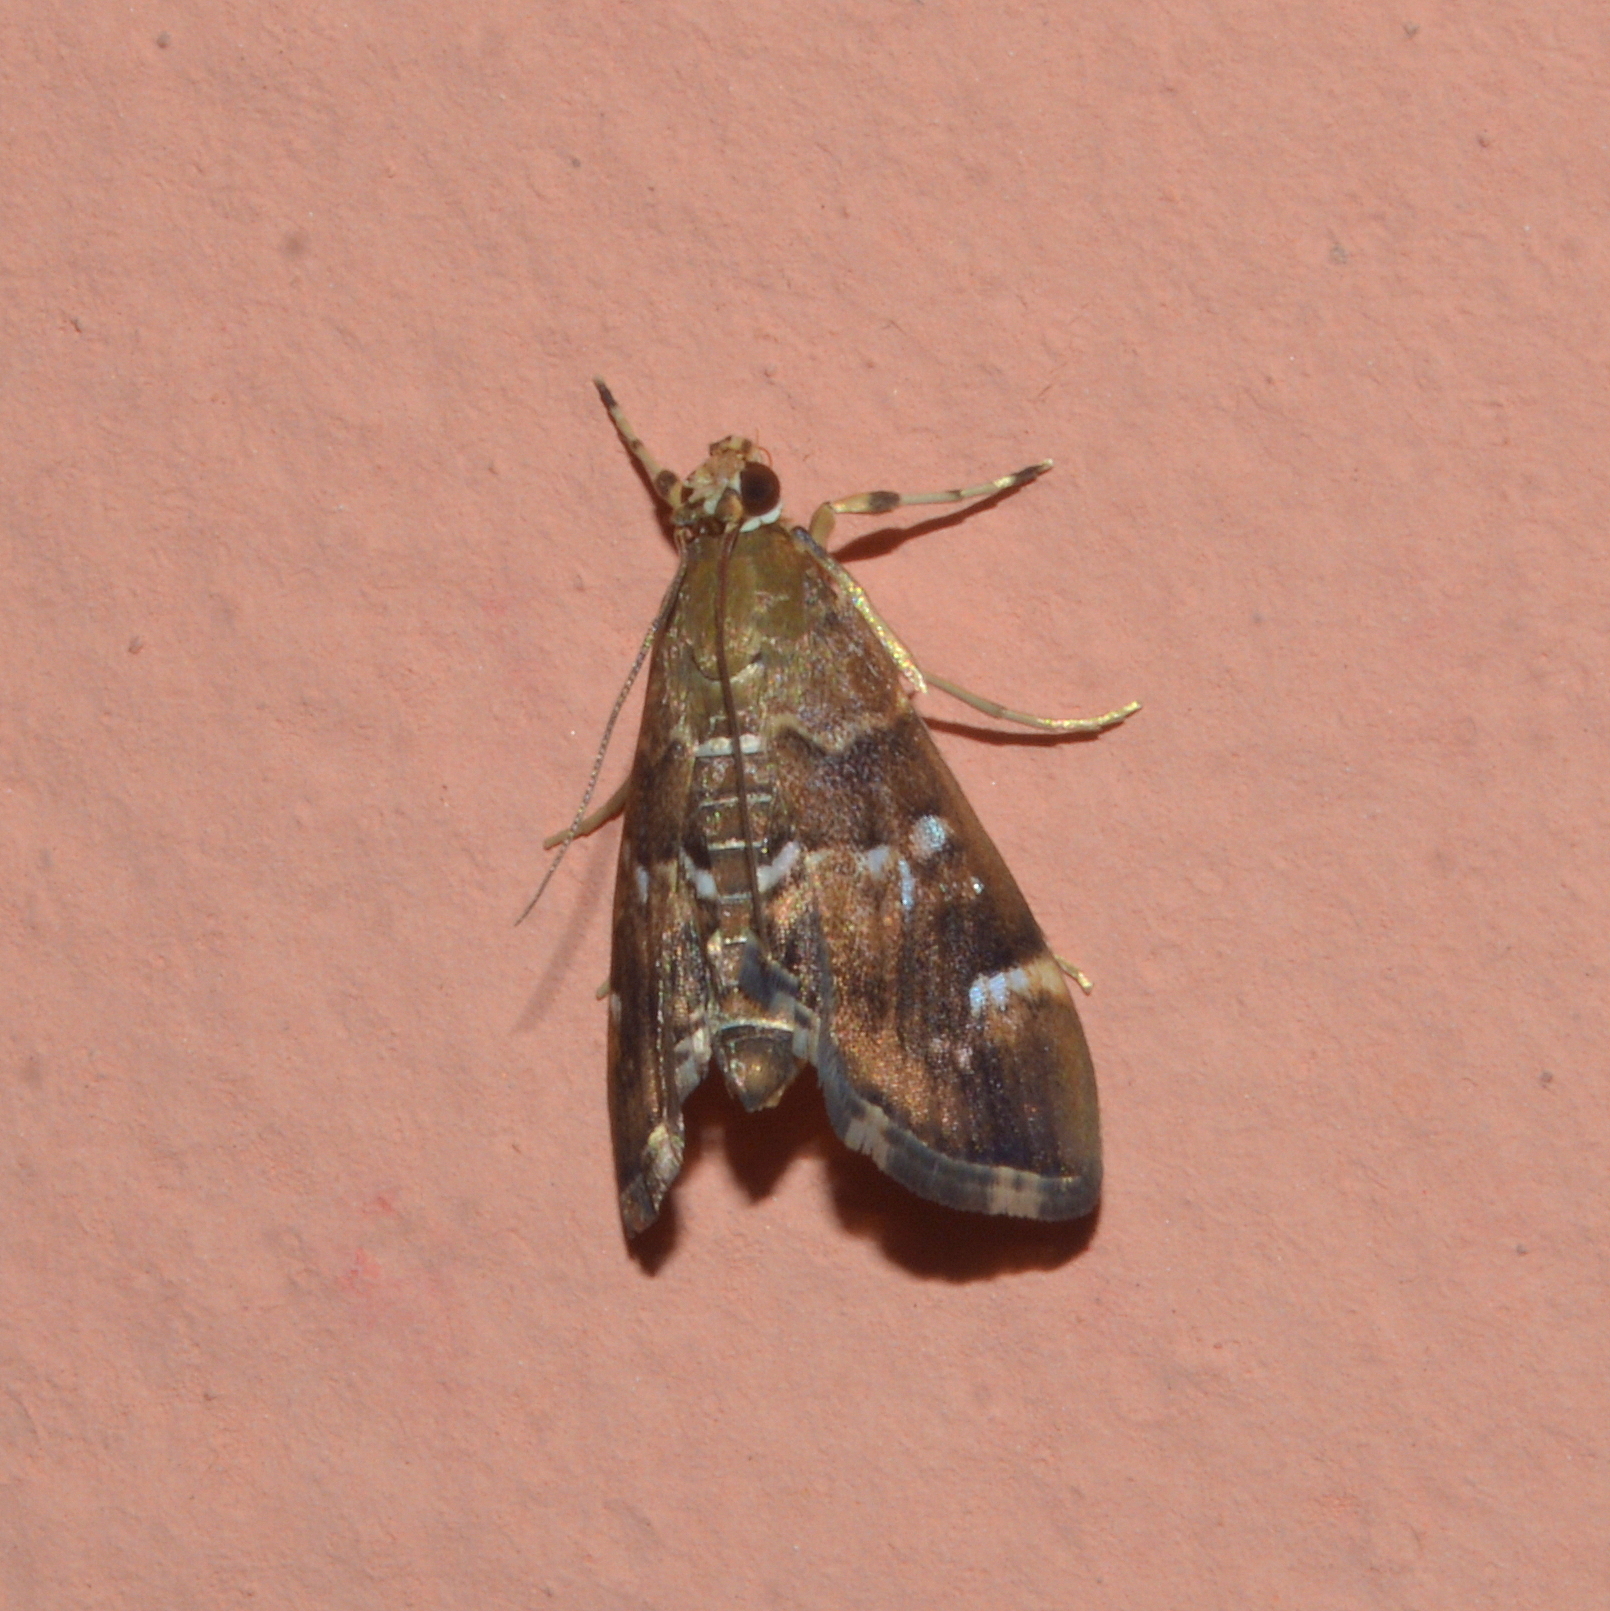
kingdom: Animalia
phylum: Arthropoda
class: Insecta
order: Lepidoptera
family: Crambidae
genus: Hymenia
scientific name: Hymenia perspectalis
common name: Spotted beet webworm
